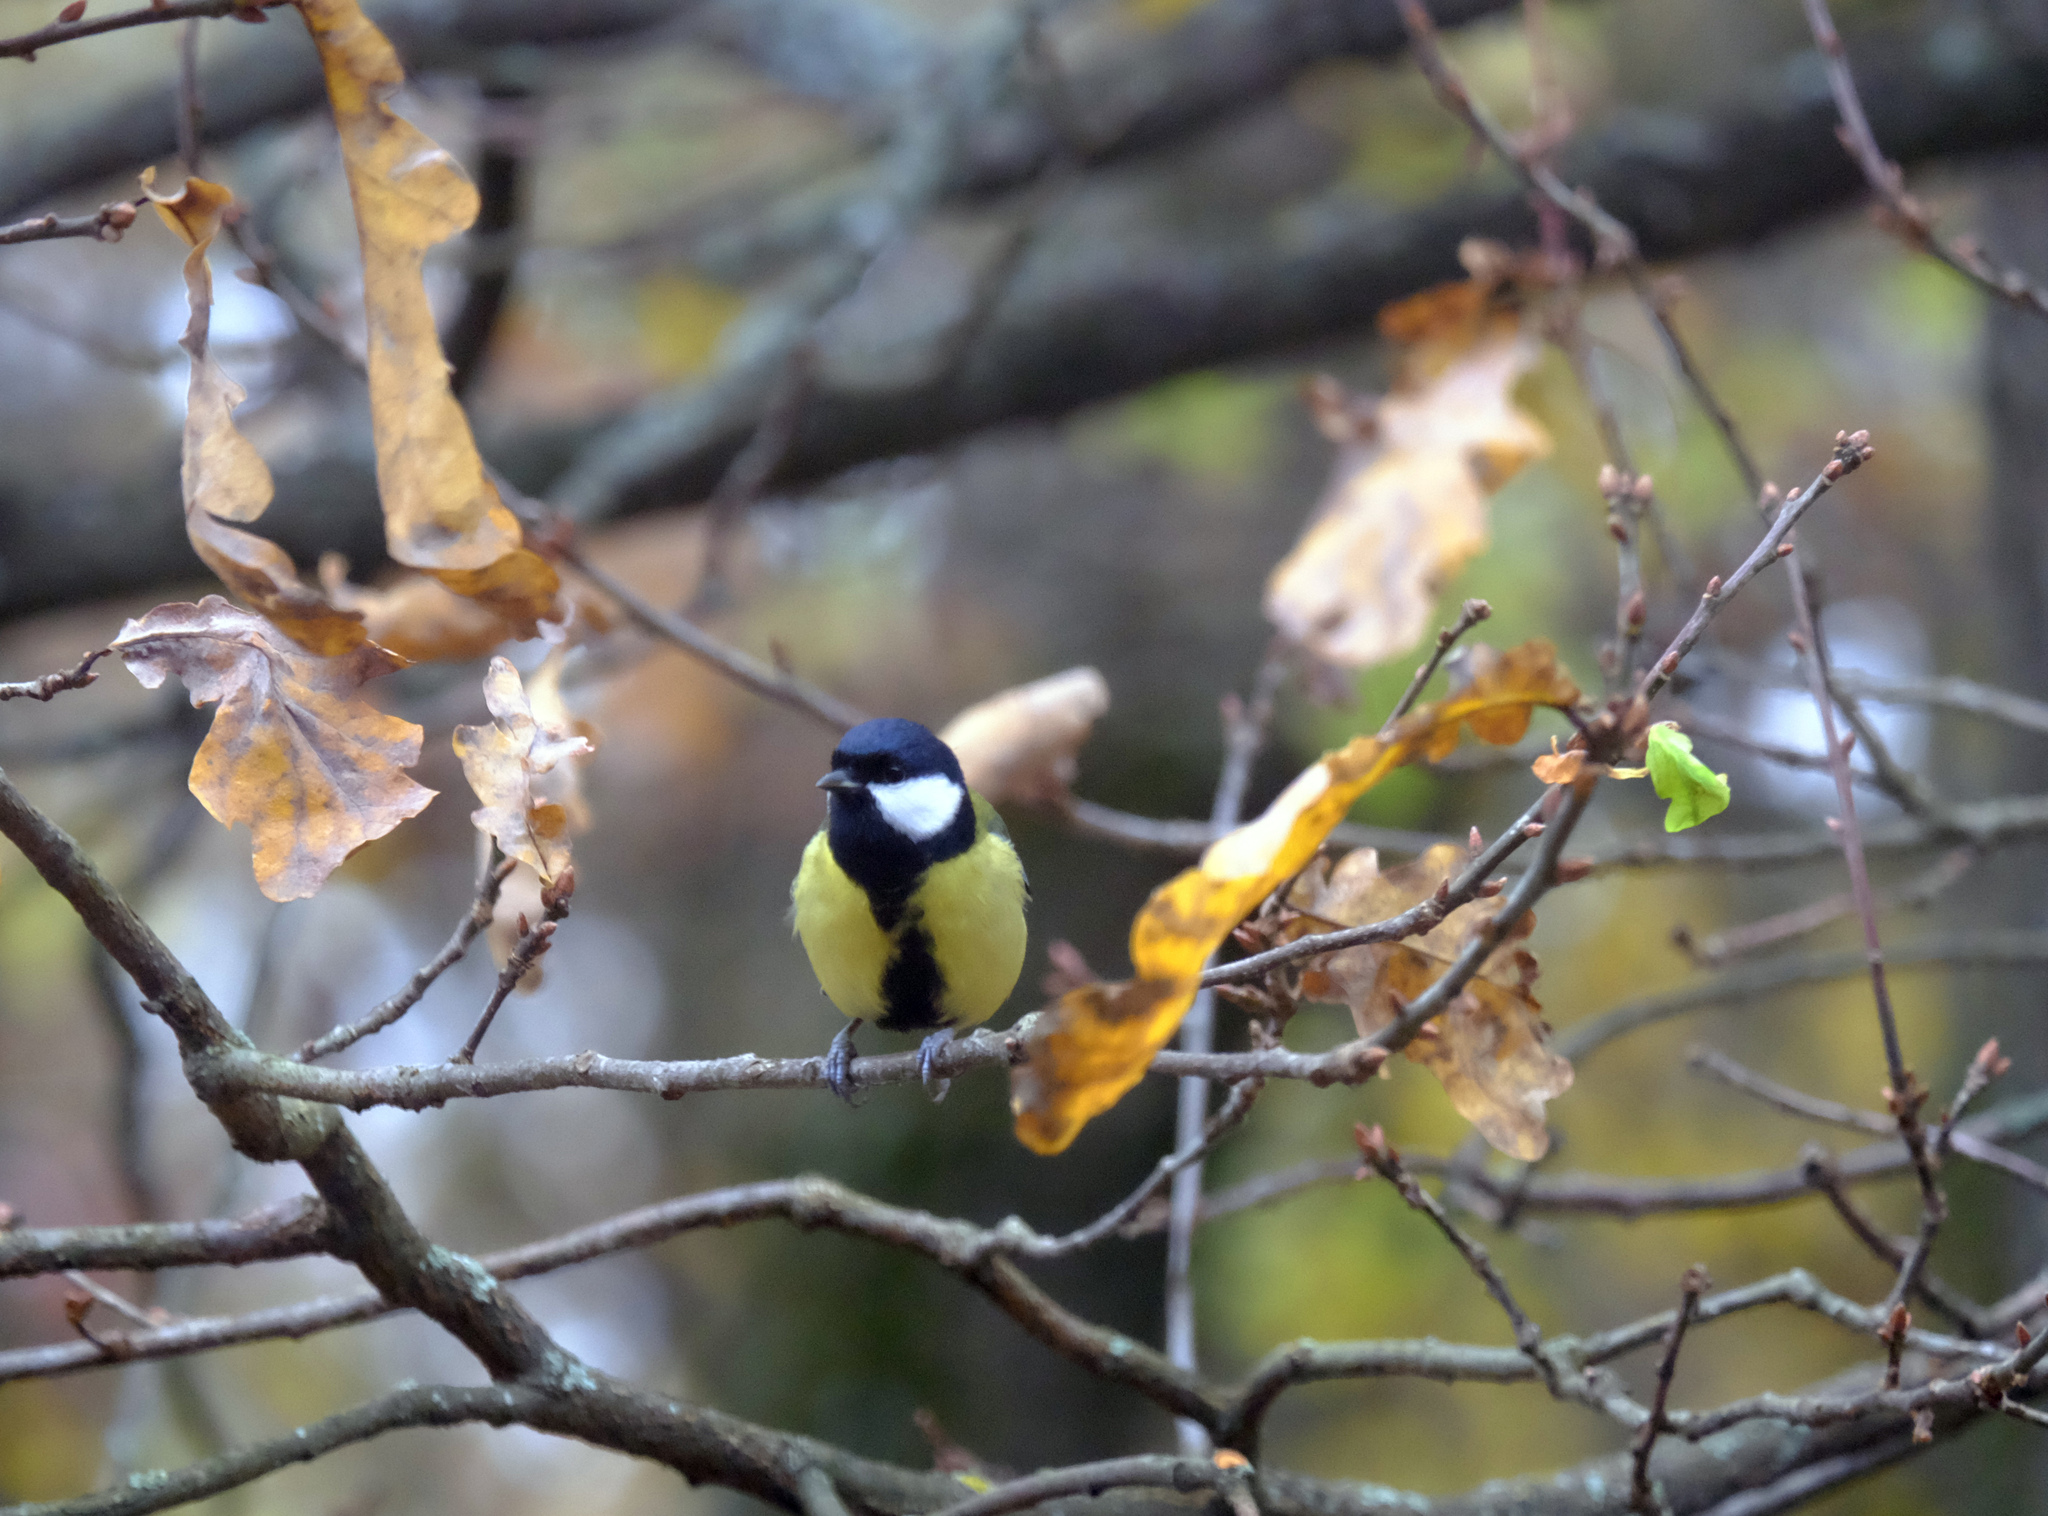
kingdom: Animalia
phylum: Chordata
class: Aves
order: Passeriformes
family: Paridae
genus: Parus
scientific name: Parus major
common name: Great tit
